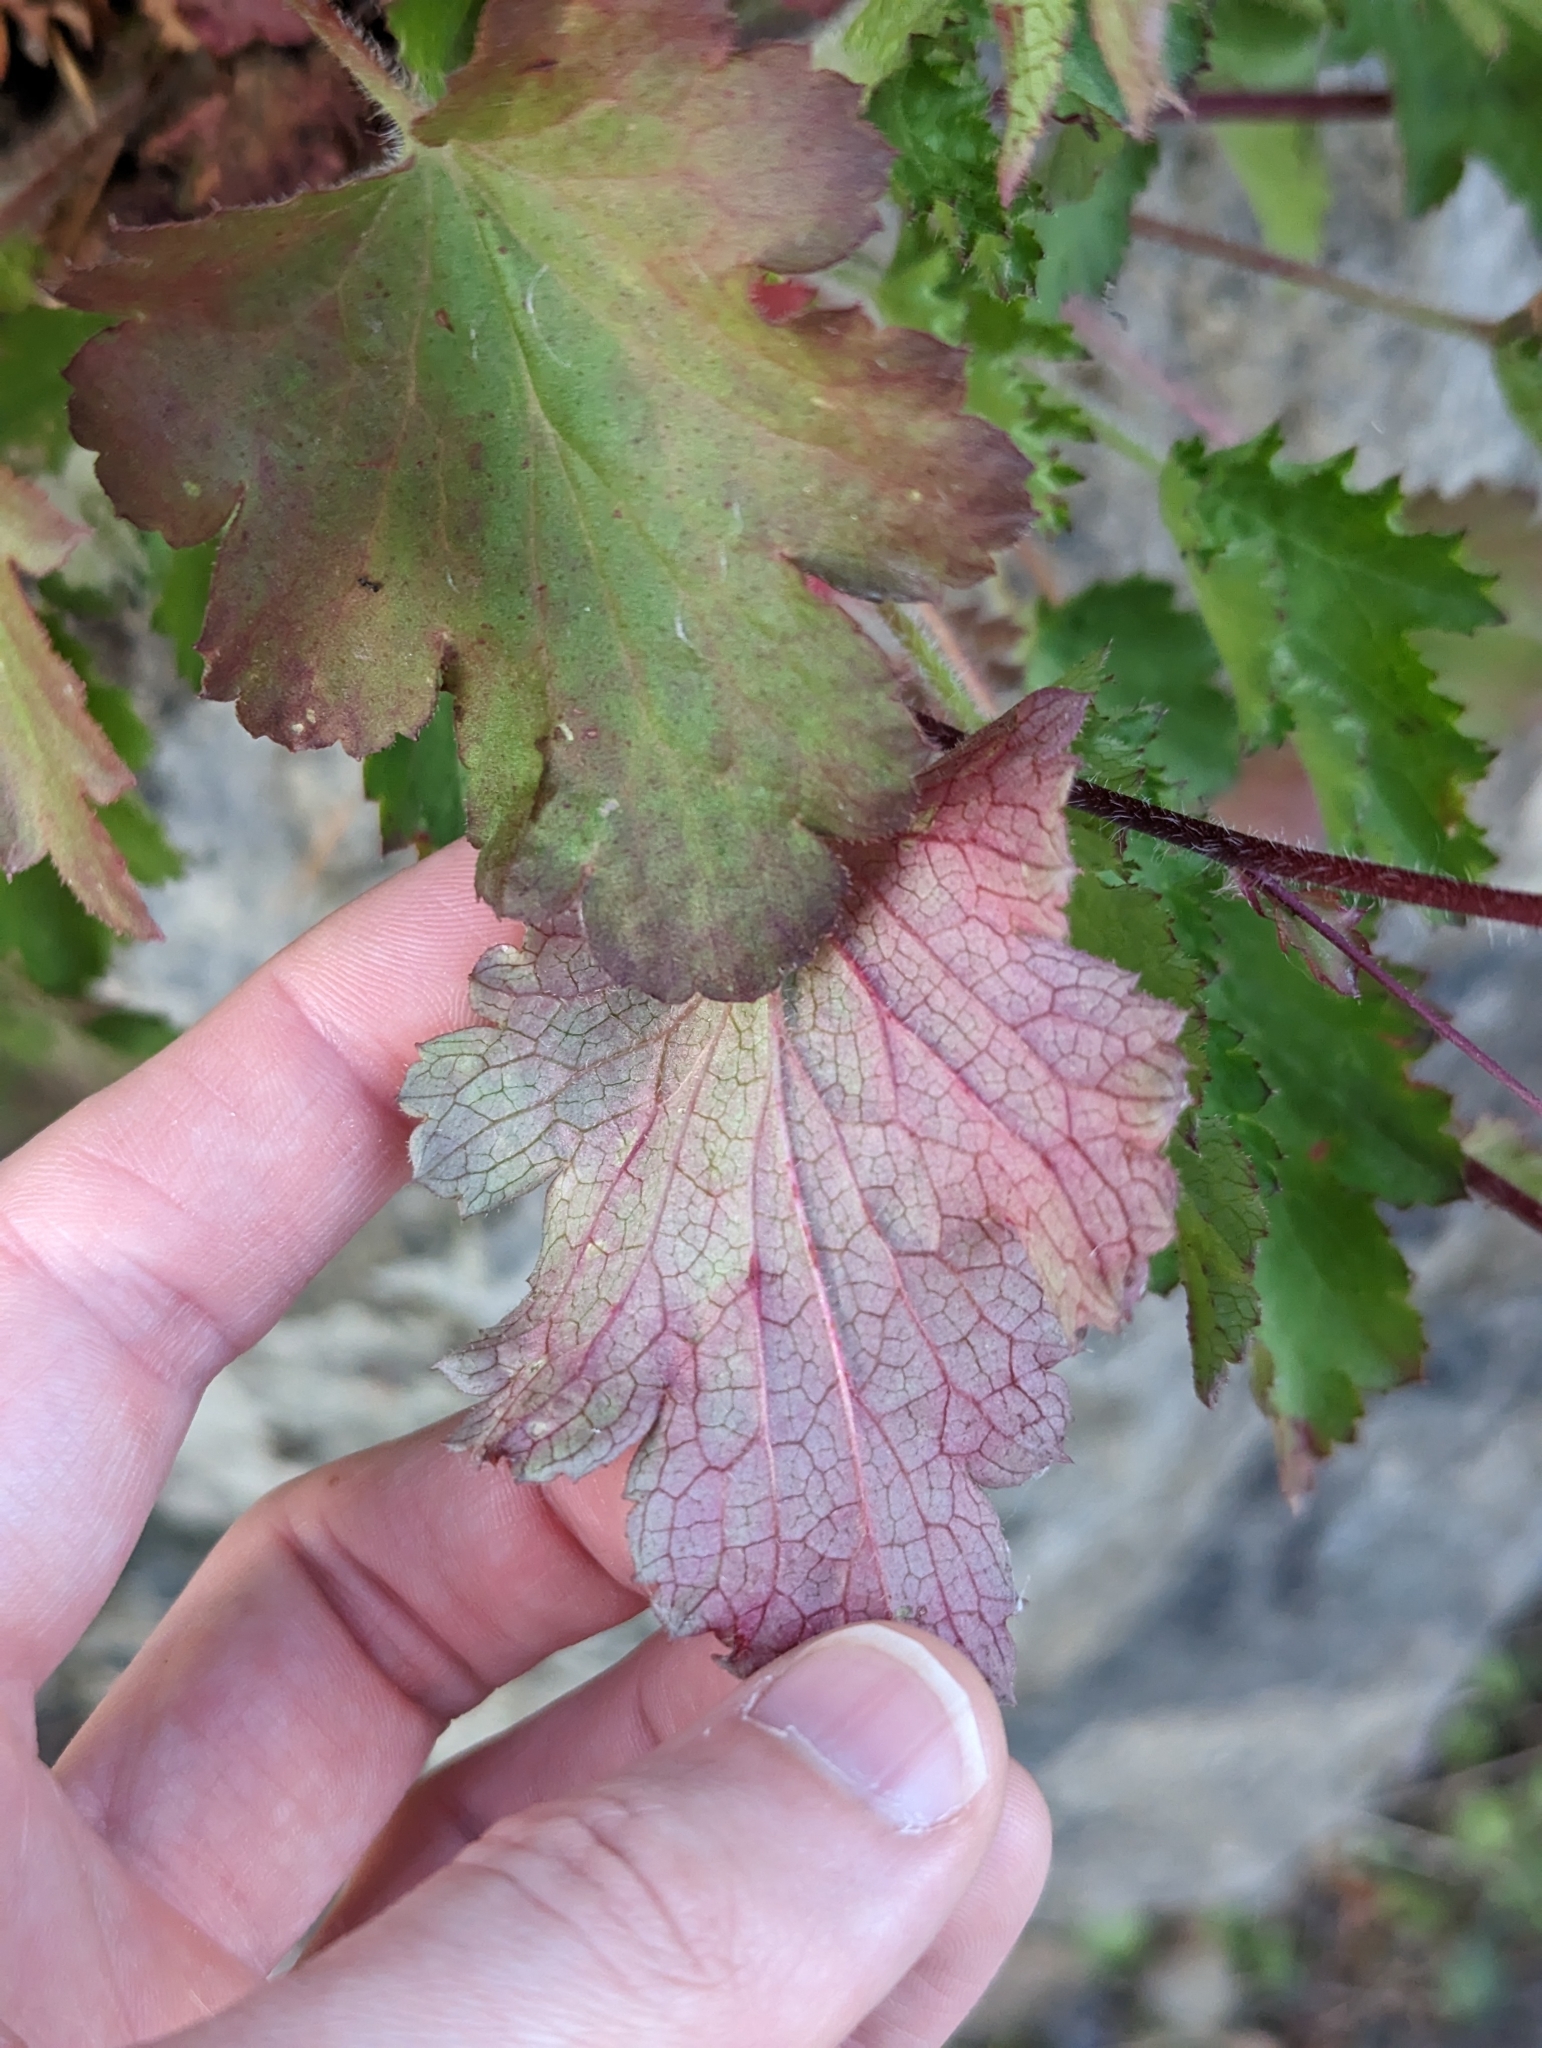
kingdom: Plantae
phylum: Tracheophyta
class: Magnoliopsida
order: Saxifragales
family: Saxifragaceae
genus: Heuchera
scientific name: Heuchera micrantha
